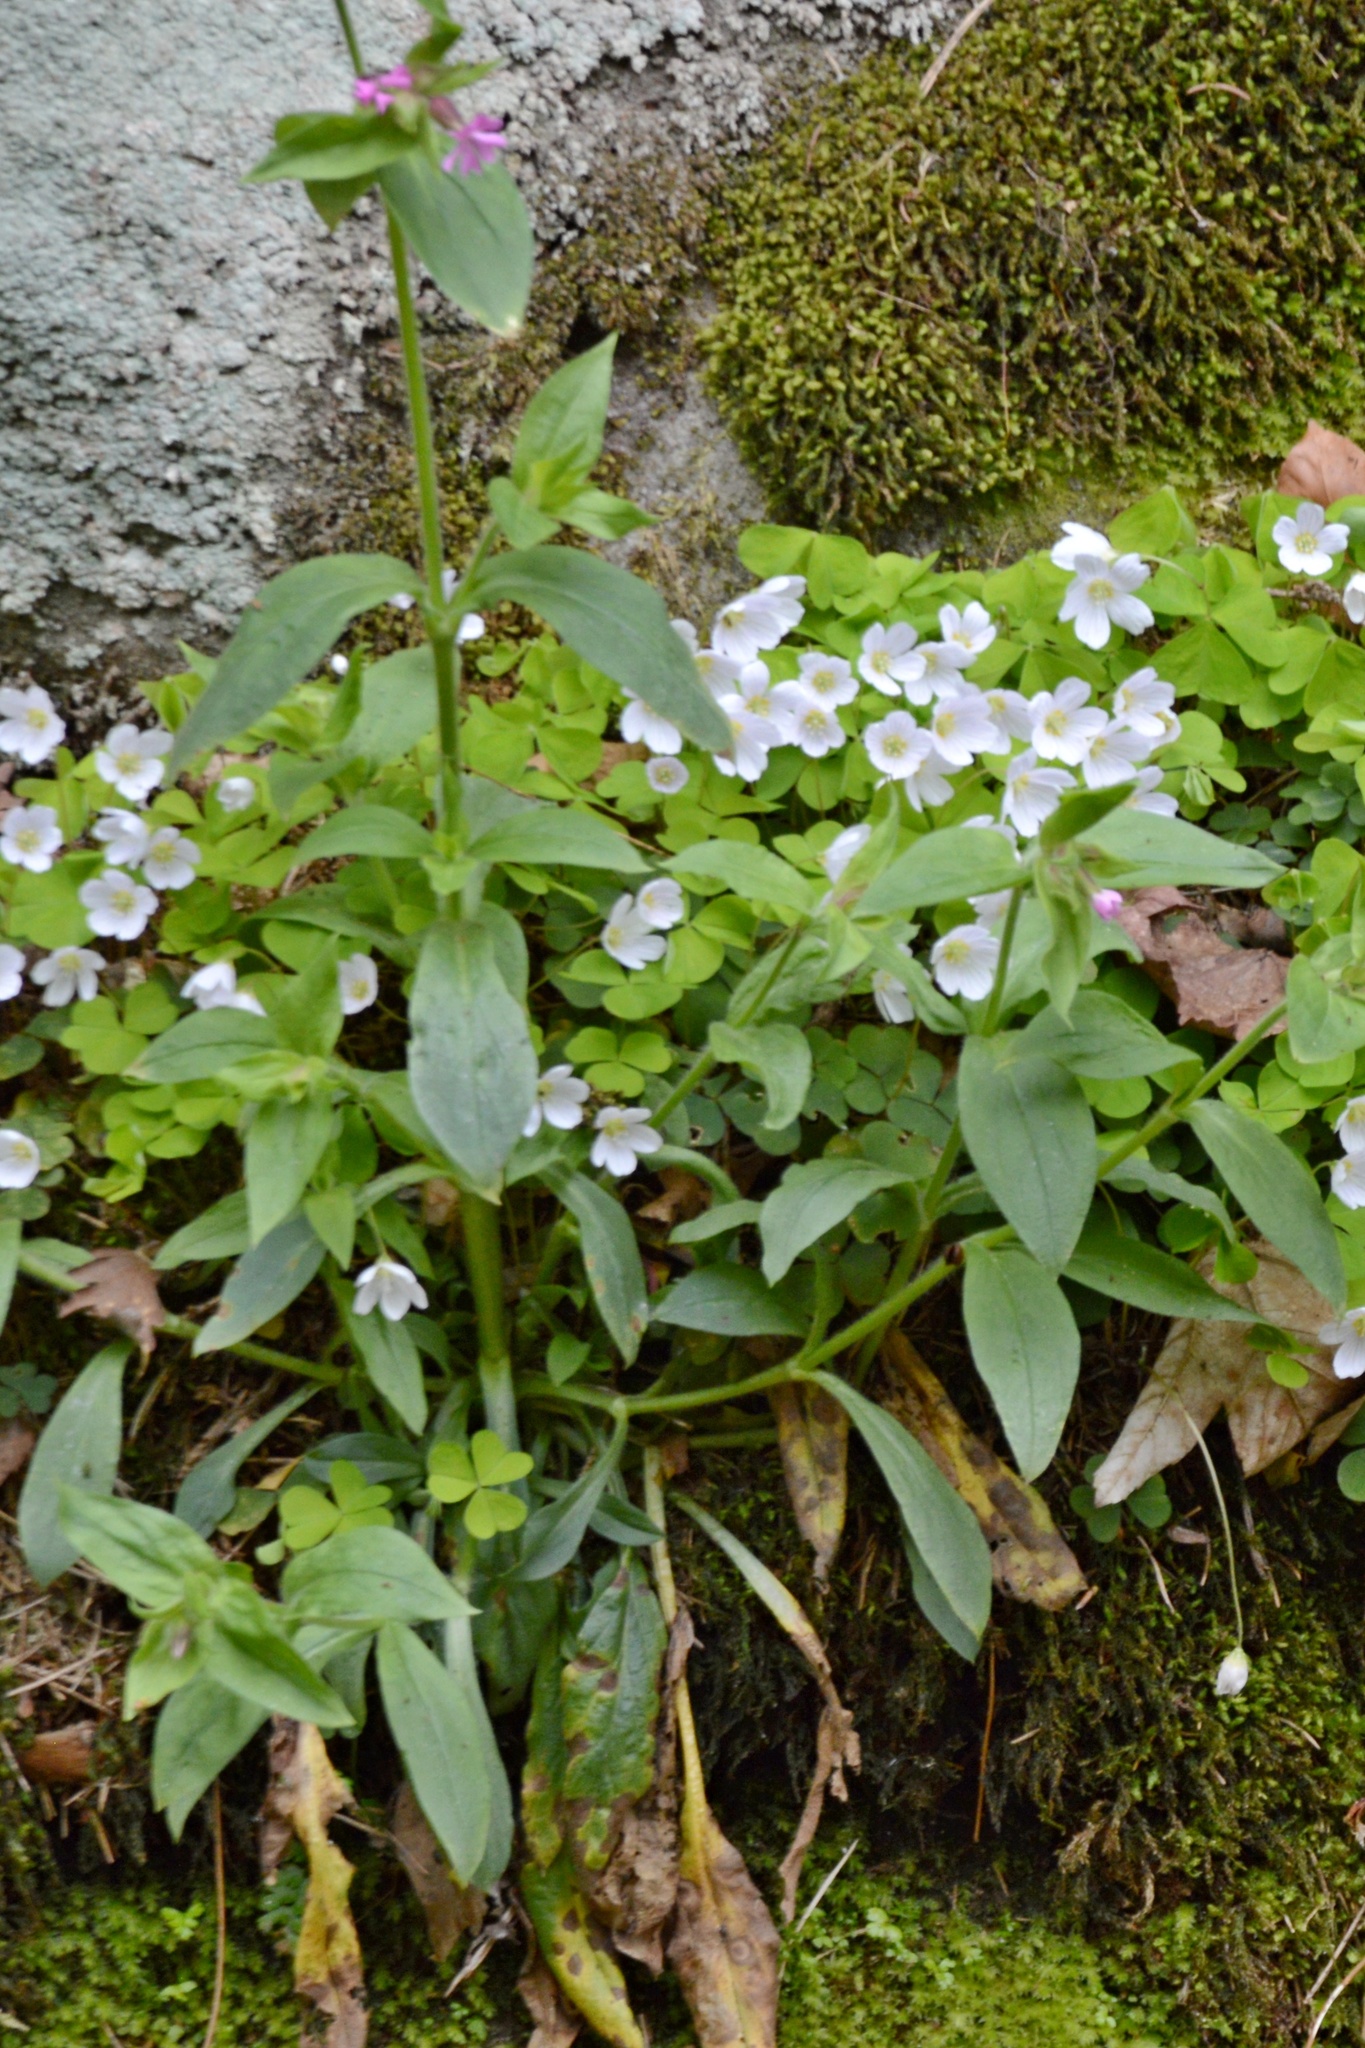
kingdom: Plantae
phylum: Tracheophyta
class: Magnoliopsida
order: Caryophyllales
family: Caryophyllaceae
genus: Silene
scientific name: Silene dioica
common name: Red campion
